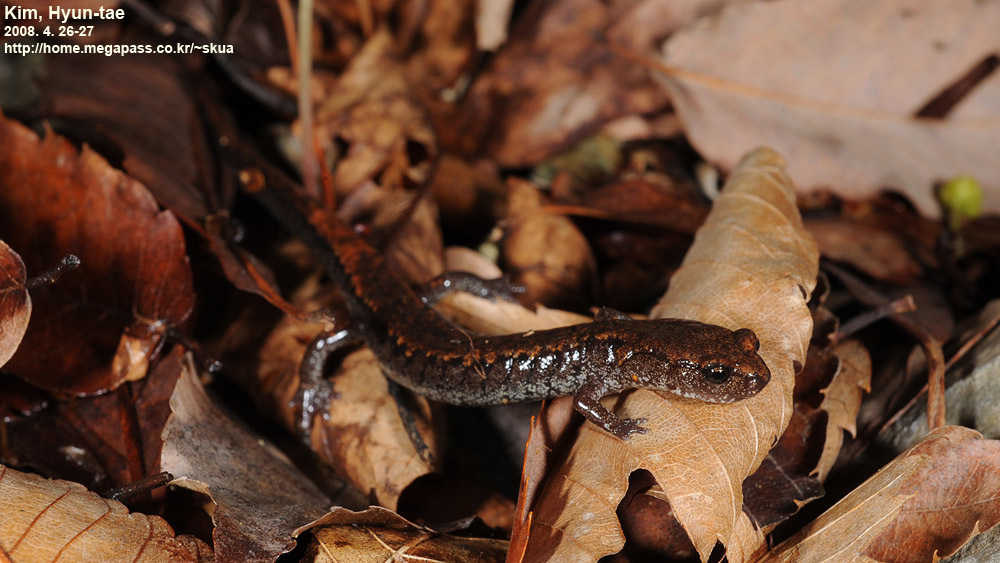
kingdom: Animalia
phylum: Chordata
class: Amphibia
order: Caudata
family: Plethodontidae
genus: Karsenia
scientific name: Karsenia koreana
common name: Korean crevice salamander
